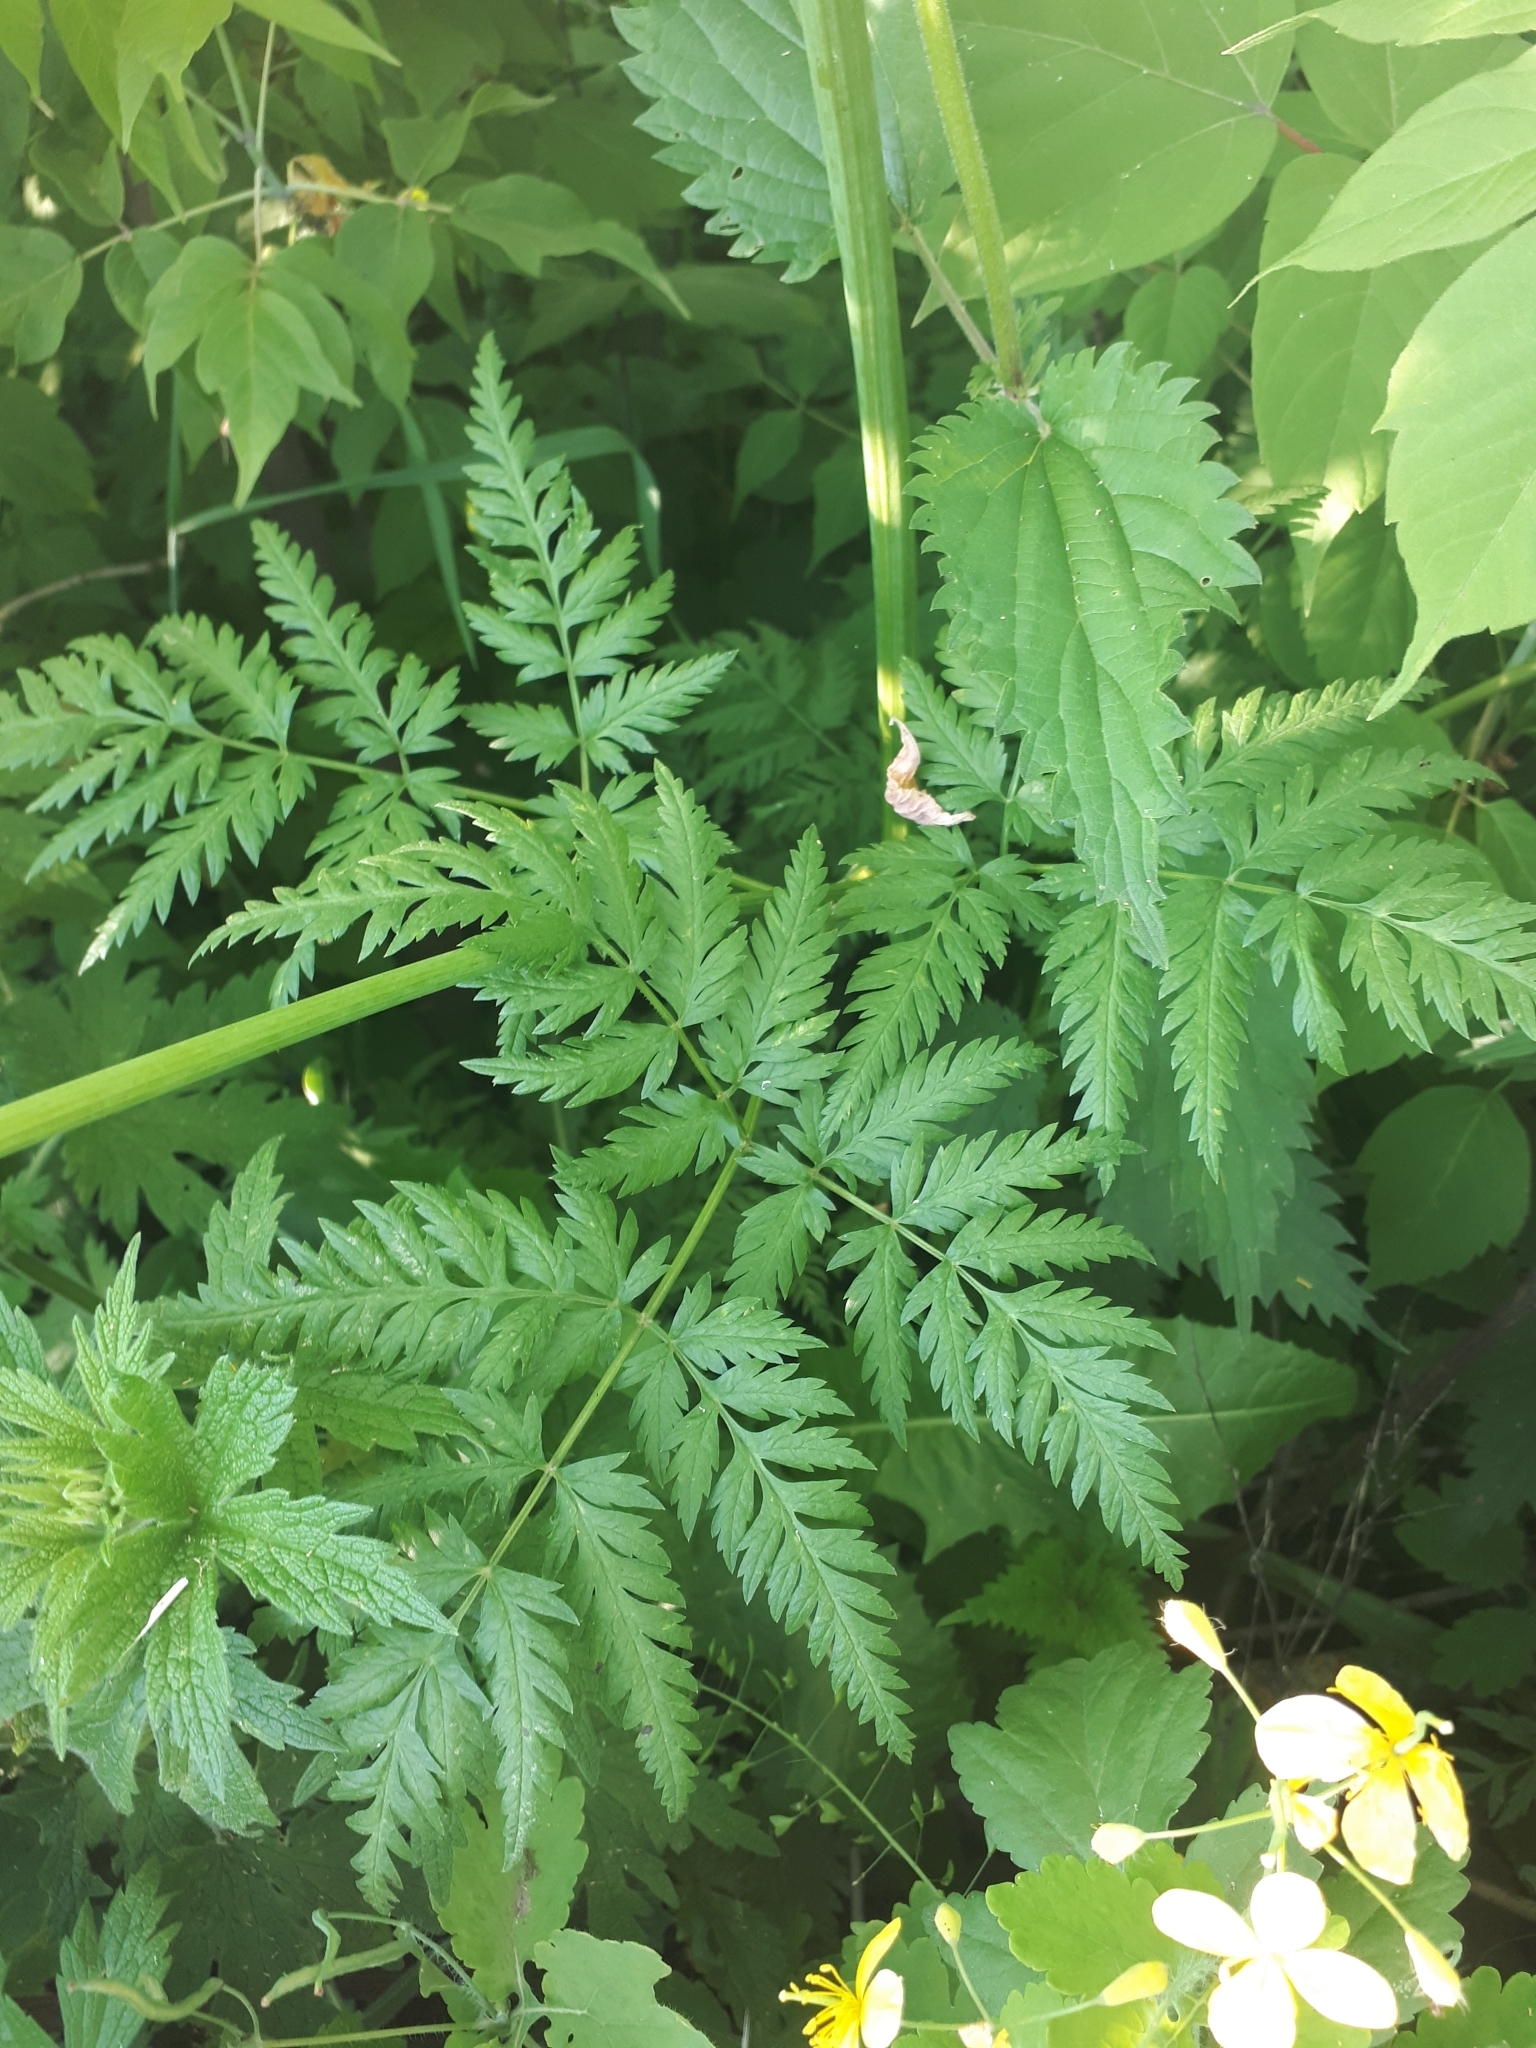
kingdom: Plantae
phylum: Tracheophyta
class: Magnoliopsida
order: Apiales
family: Apiaceae
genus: Anthriscus
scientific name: Anthriscus sylvestris
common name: Cow parsley
